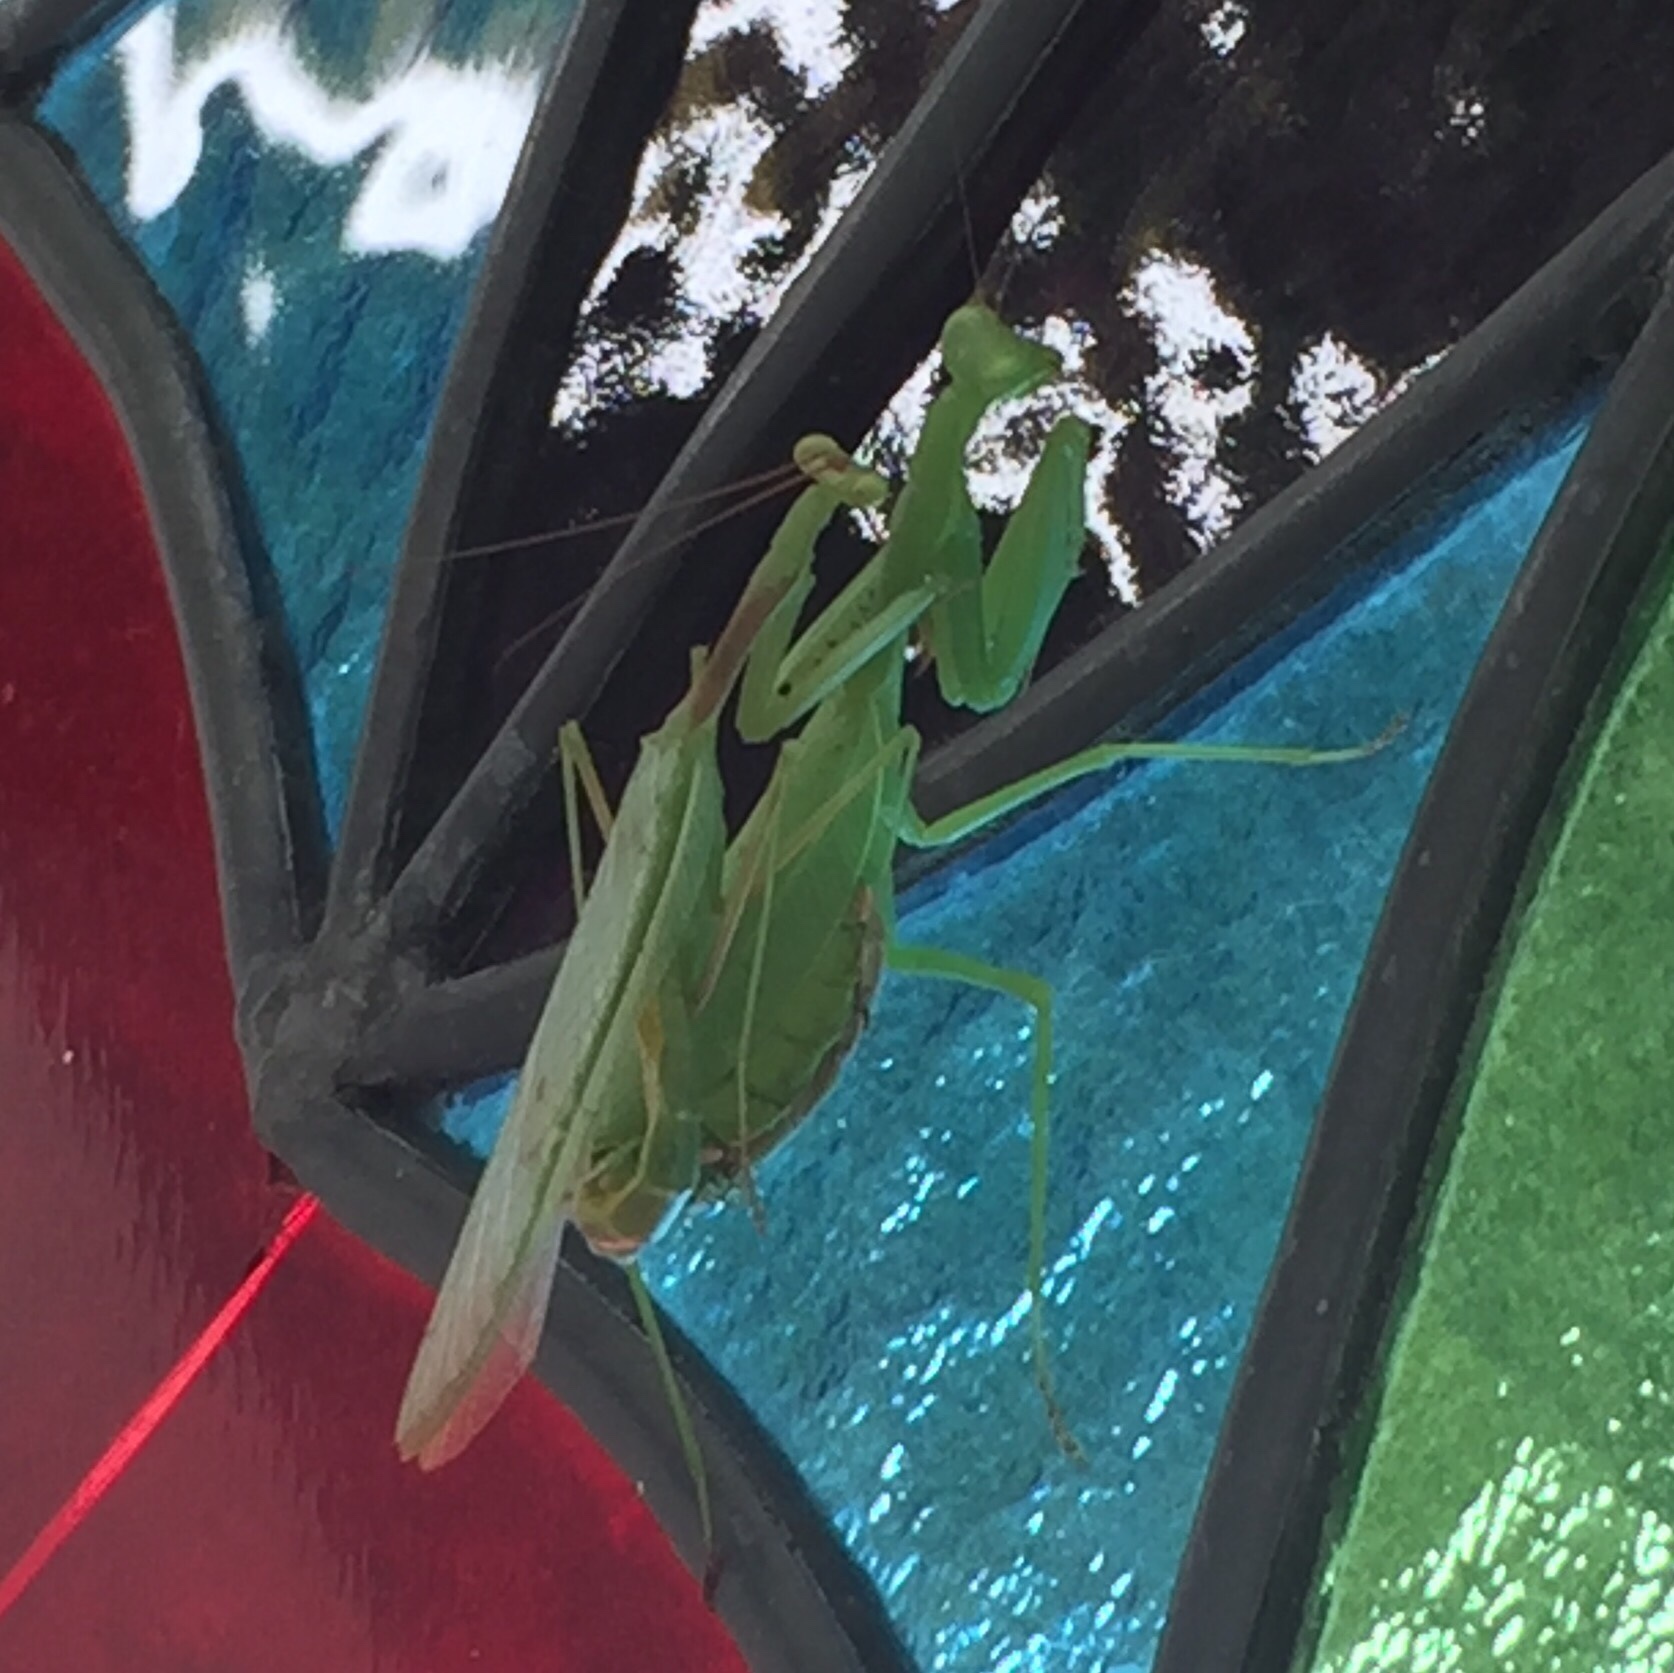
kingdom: Animalia
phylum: Arthropoda
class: Insecta
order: Mantodea
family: Miomantidae
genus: Miomantis
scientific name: Miomantis caffra
